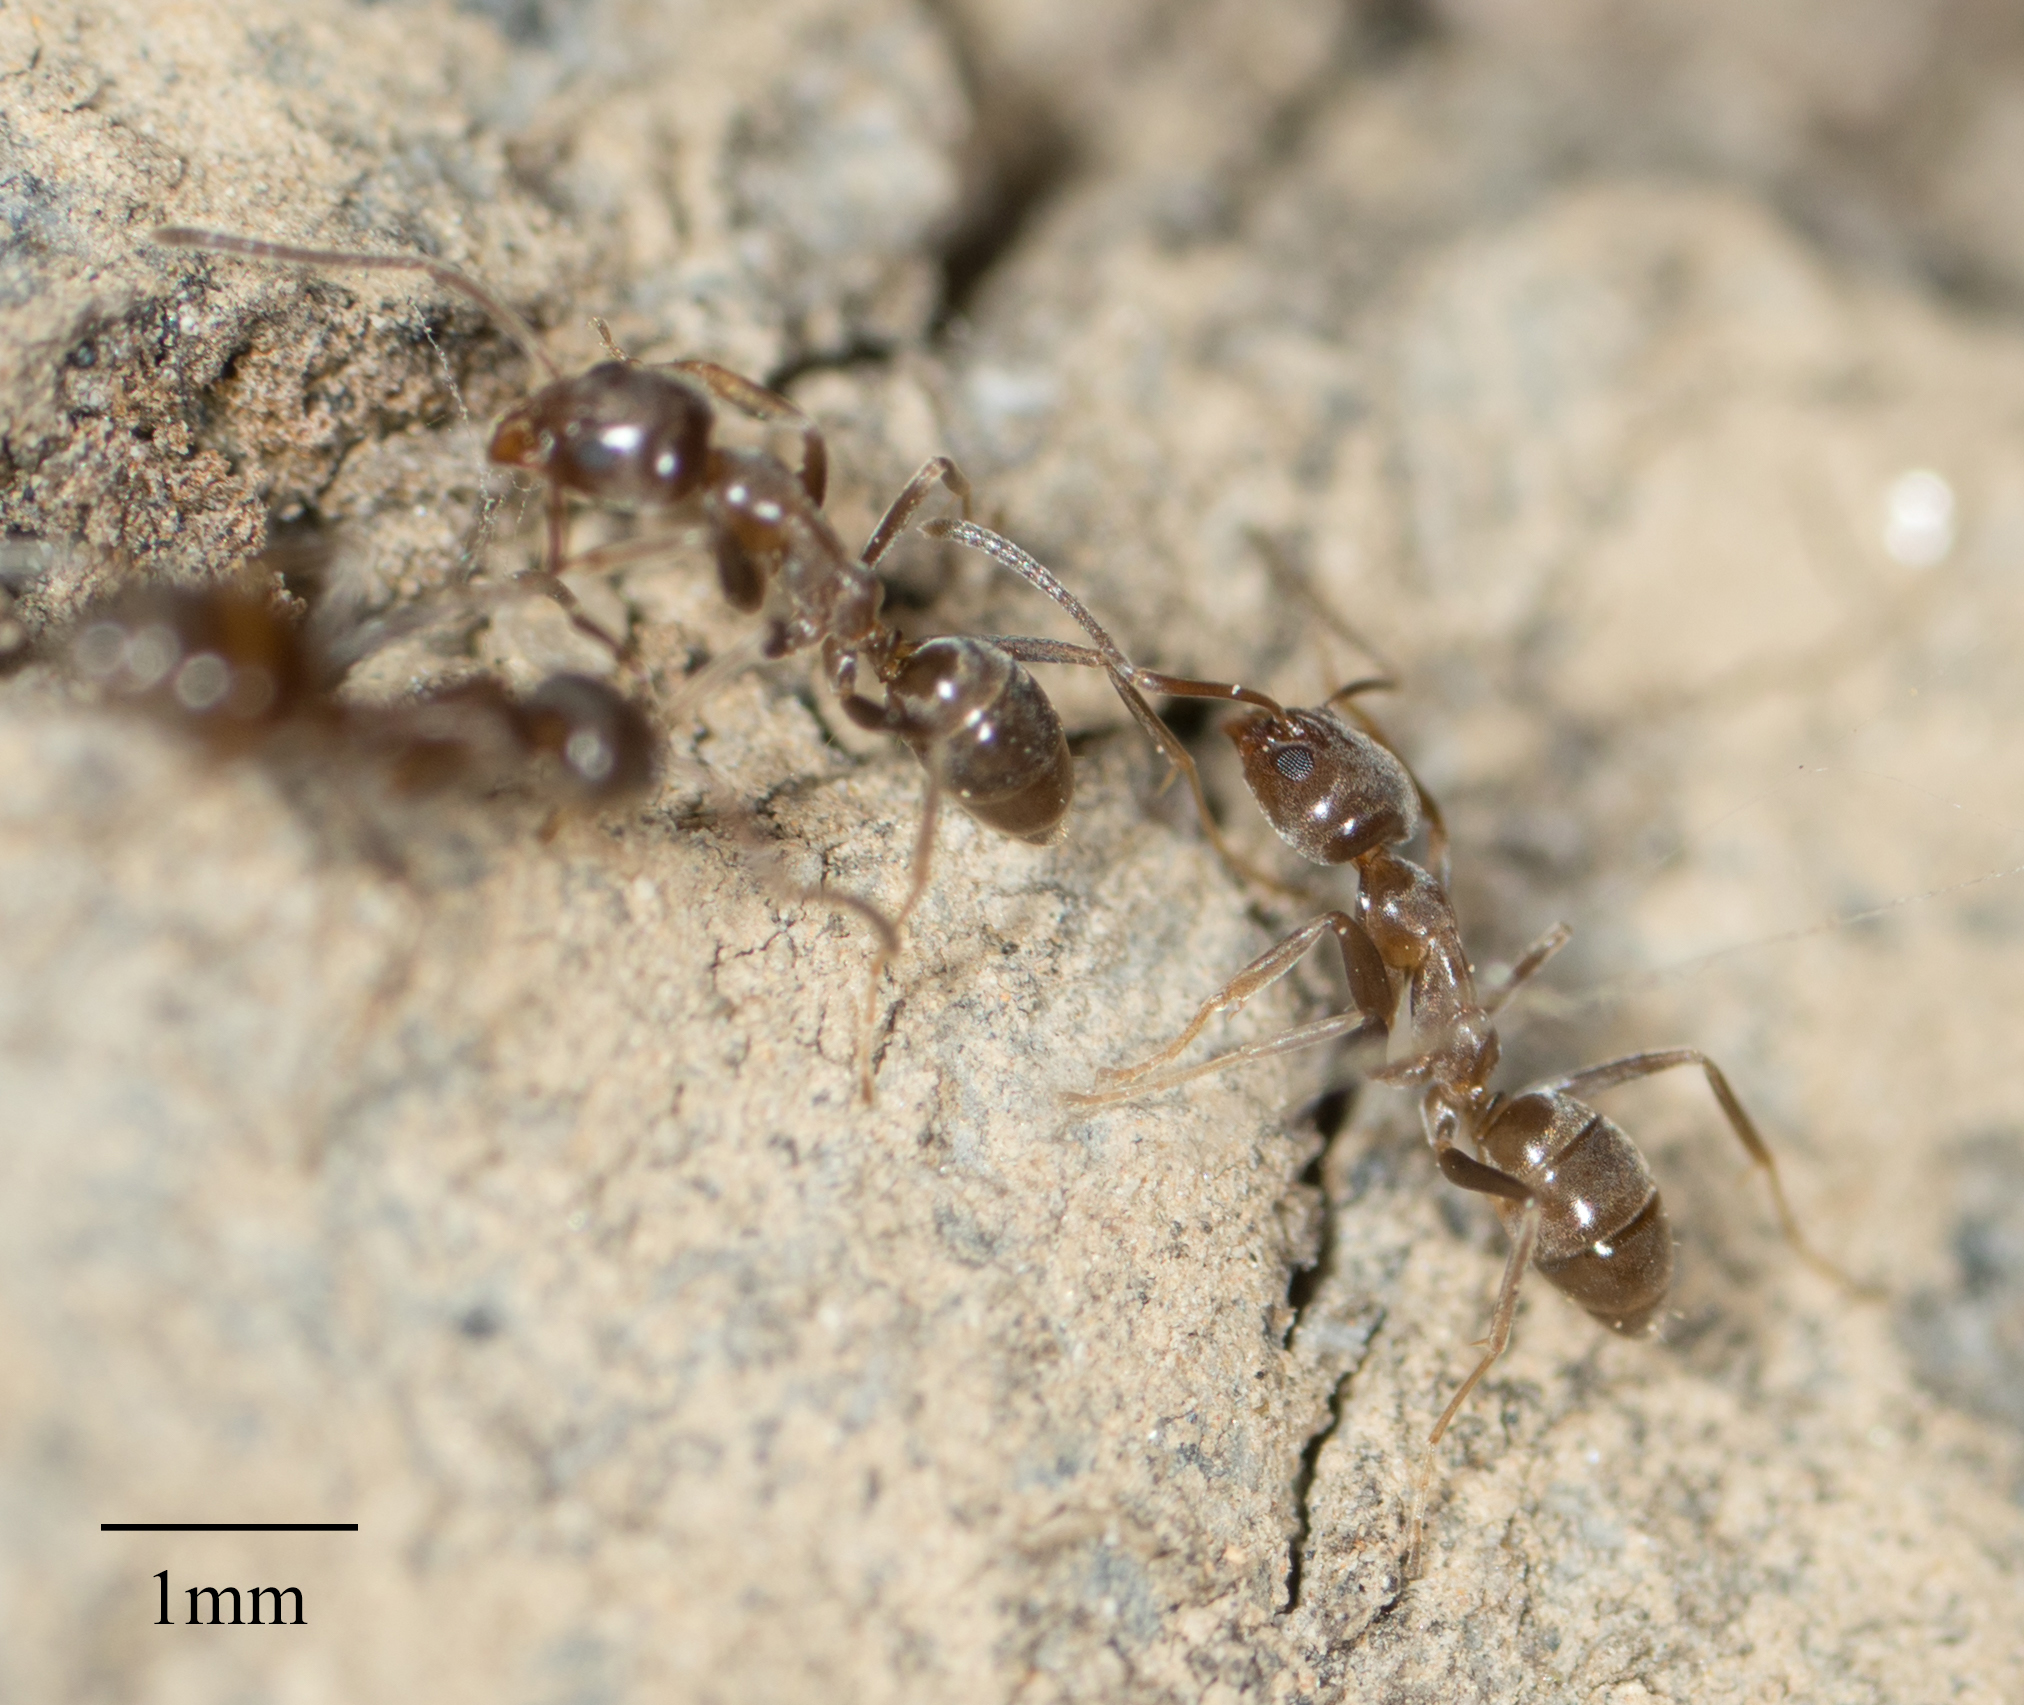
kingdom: Animalia
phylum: Arthropoda
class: Insecta
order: Hymenoptera
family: Formicidae
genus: Linepithema
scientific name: Linepithema humile
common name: Argentine ant
